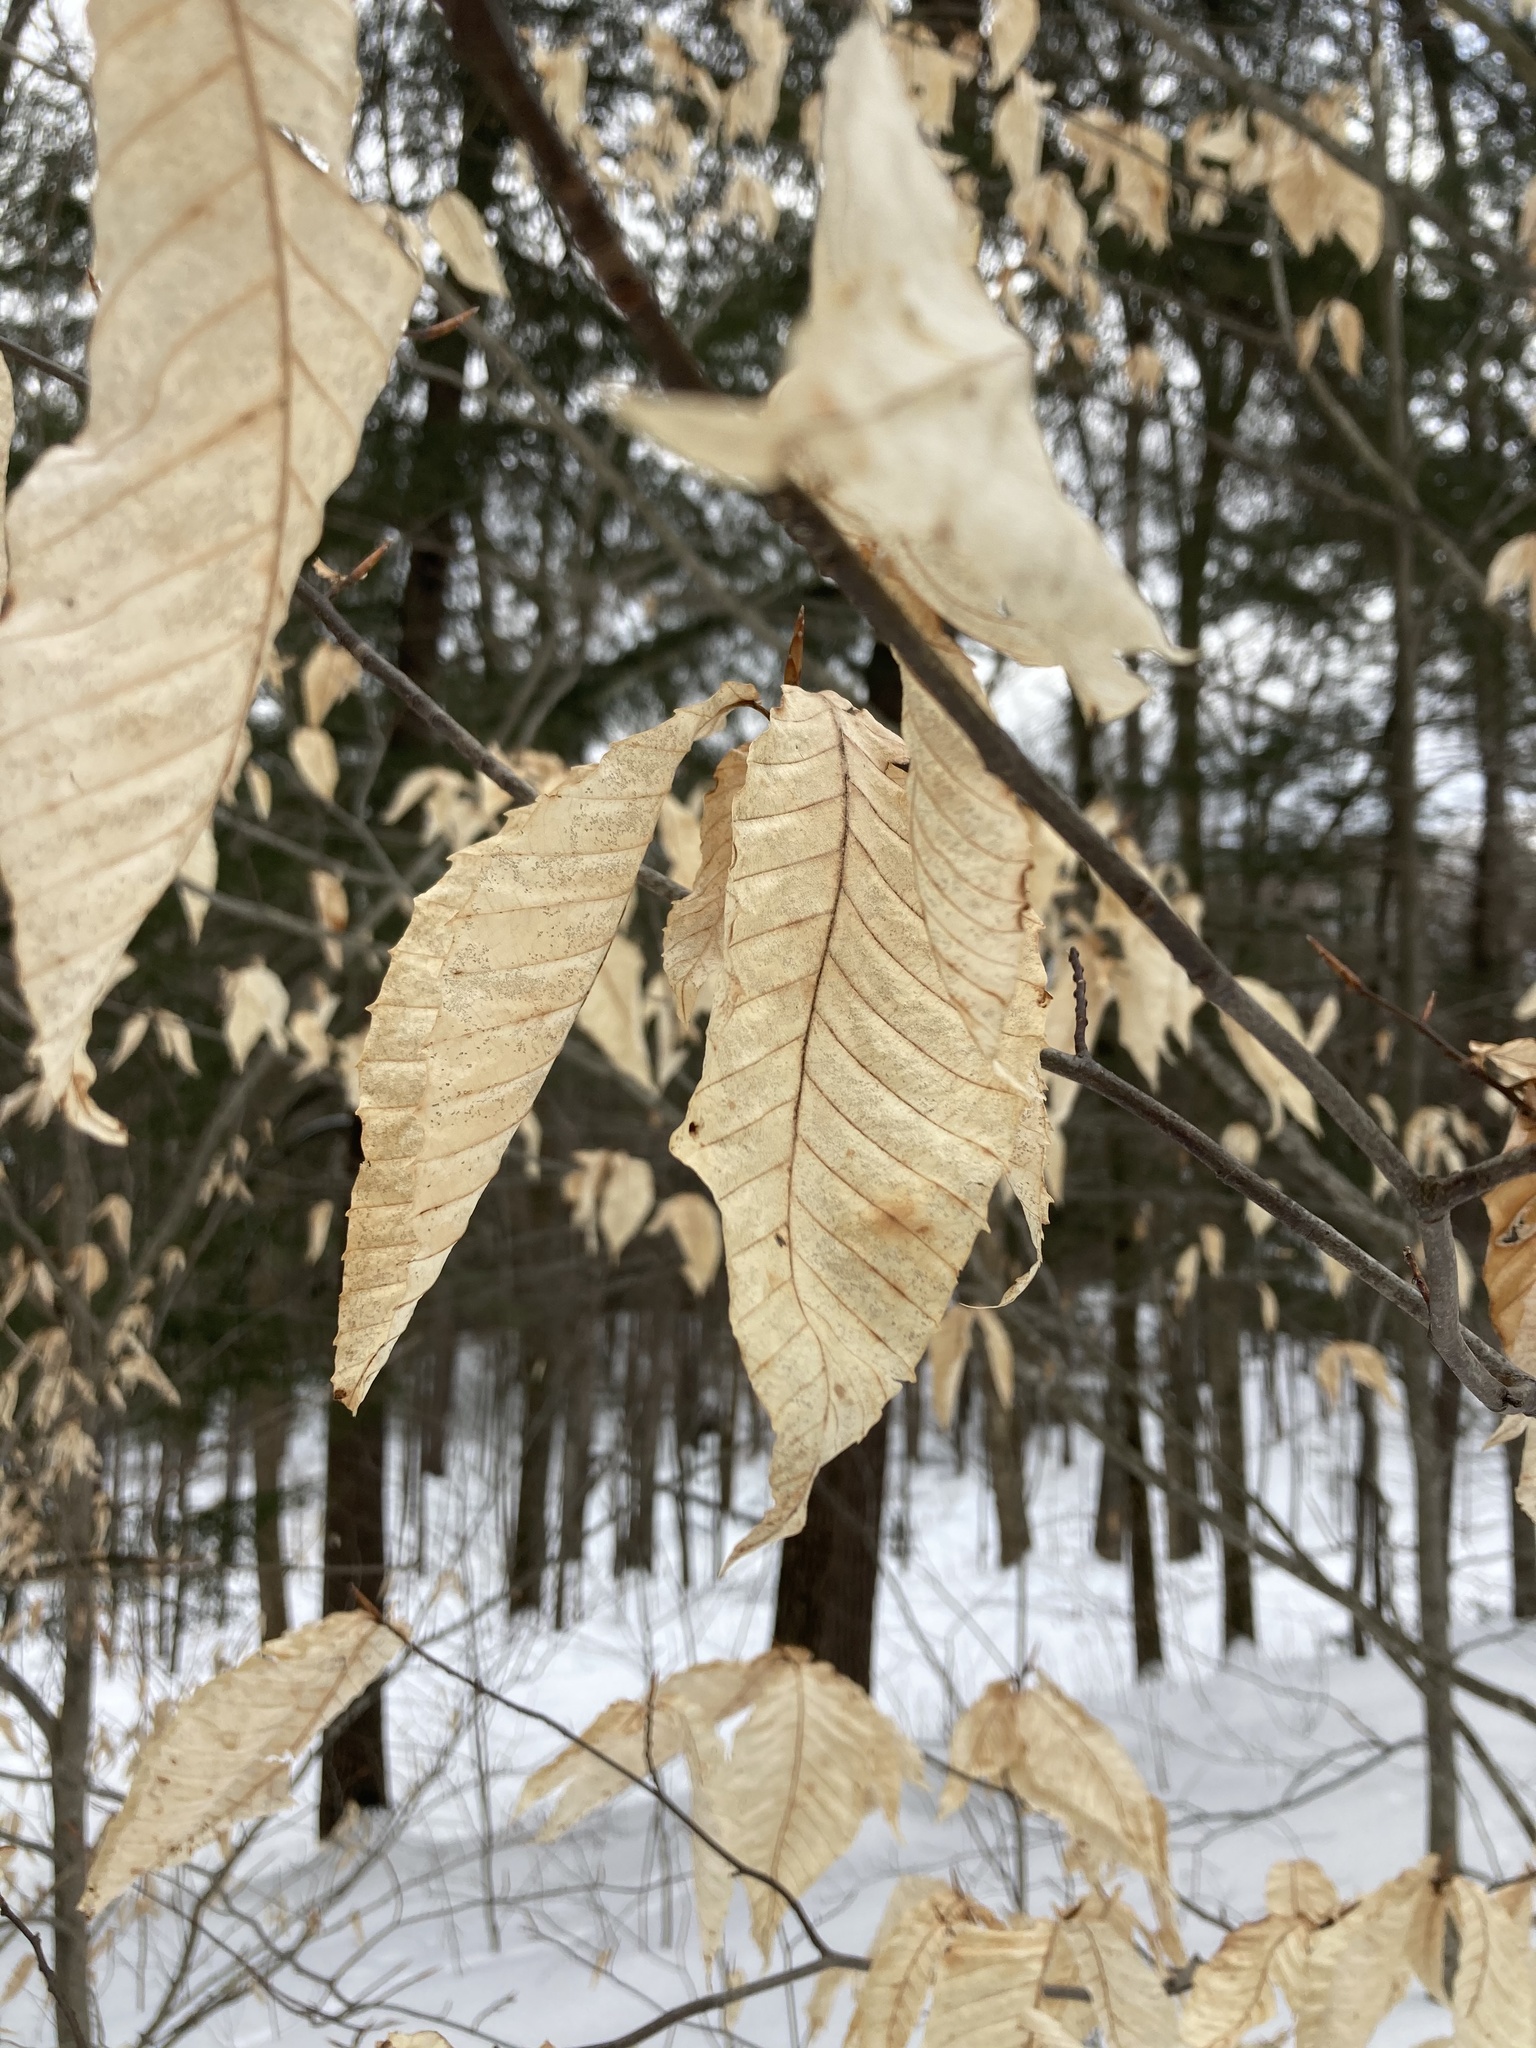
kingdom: Plantae
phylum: Tracheophyta
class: Magnoliopsida
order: Fagales
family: Fagaceae
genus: Fagus
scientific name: Fagus grandifolia
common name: American beech
